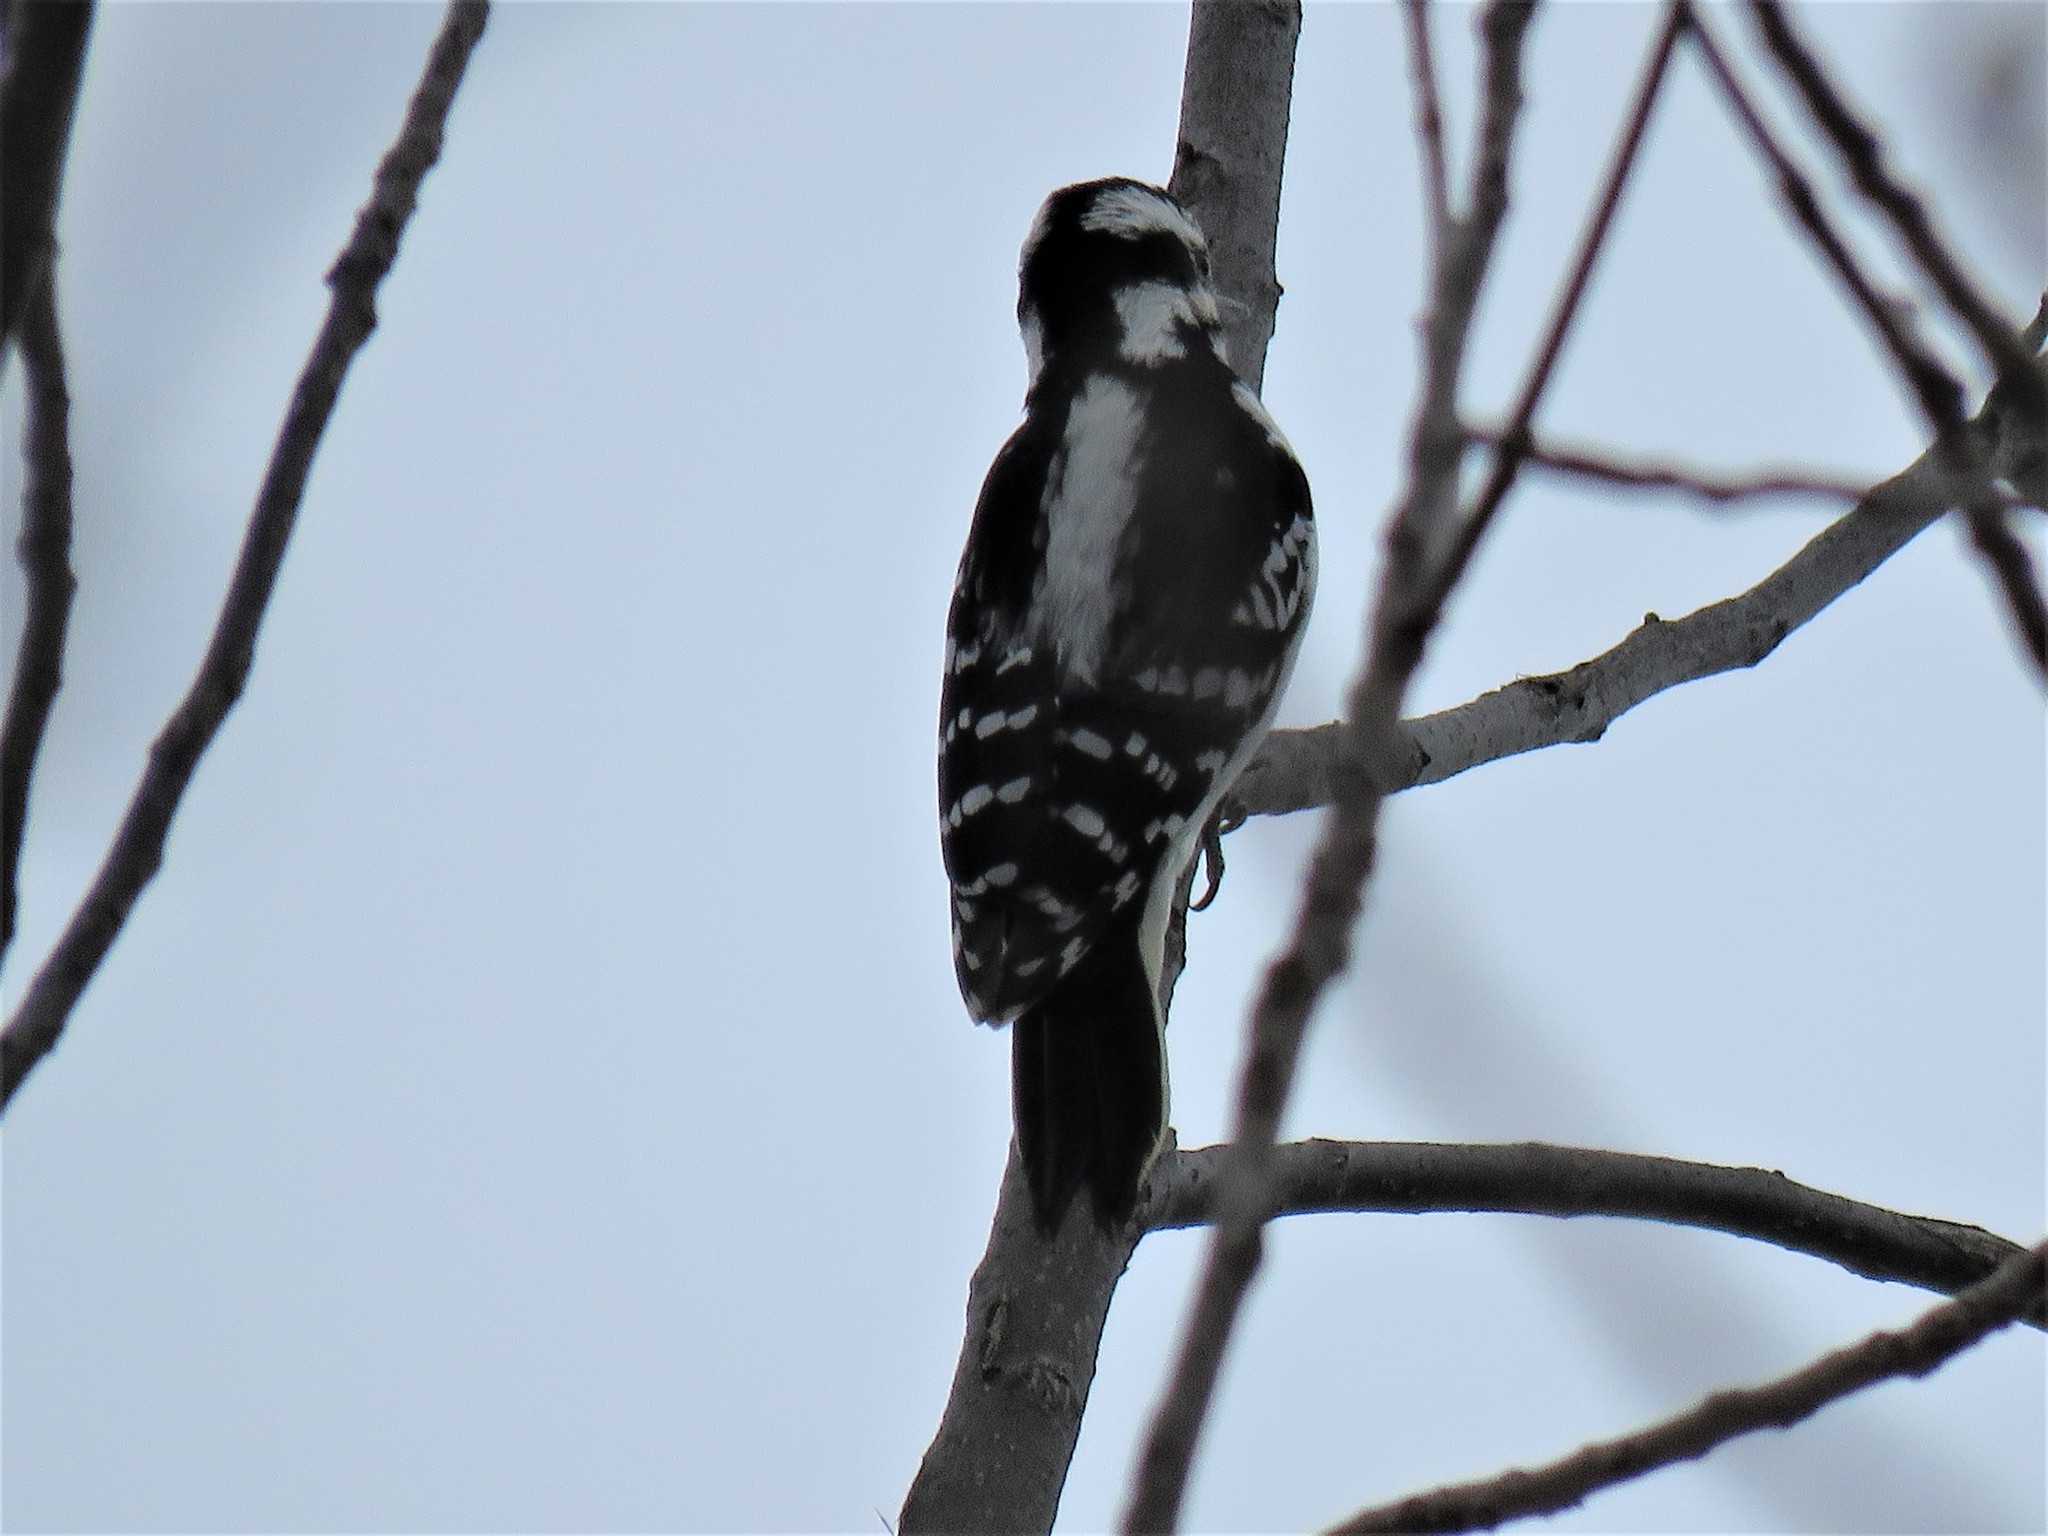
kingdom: Animalia
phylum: Chordata
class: Aves
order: Piciformes
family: Picidae
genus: Leuconotopicus
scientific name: Leuconotopicus villosus
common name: Hairy woodpecker
